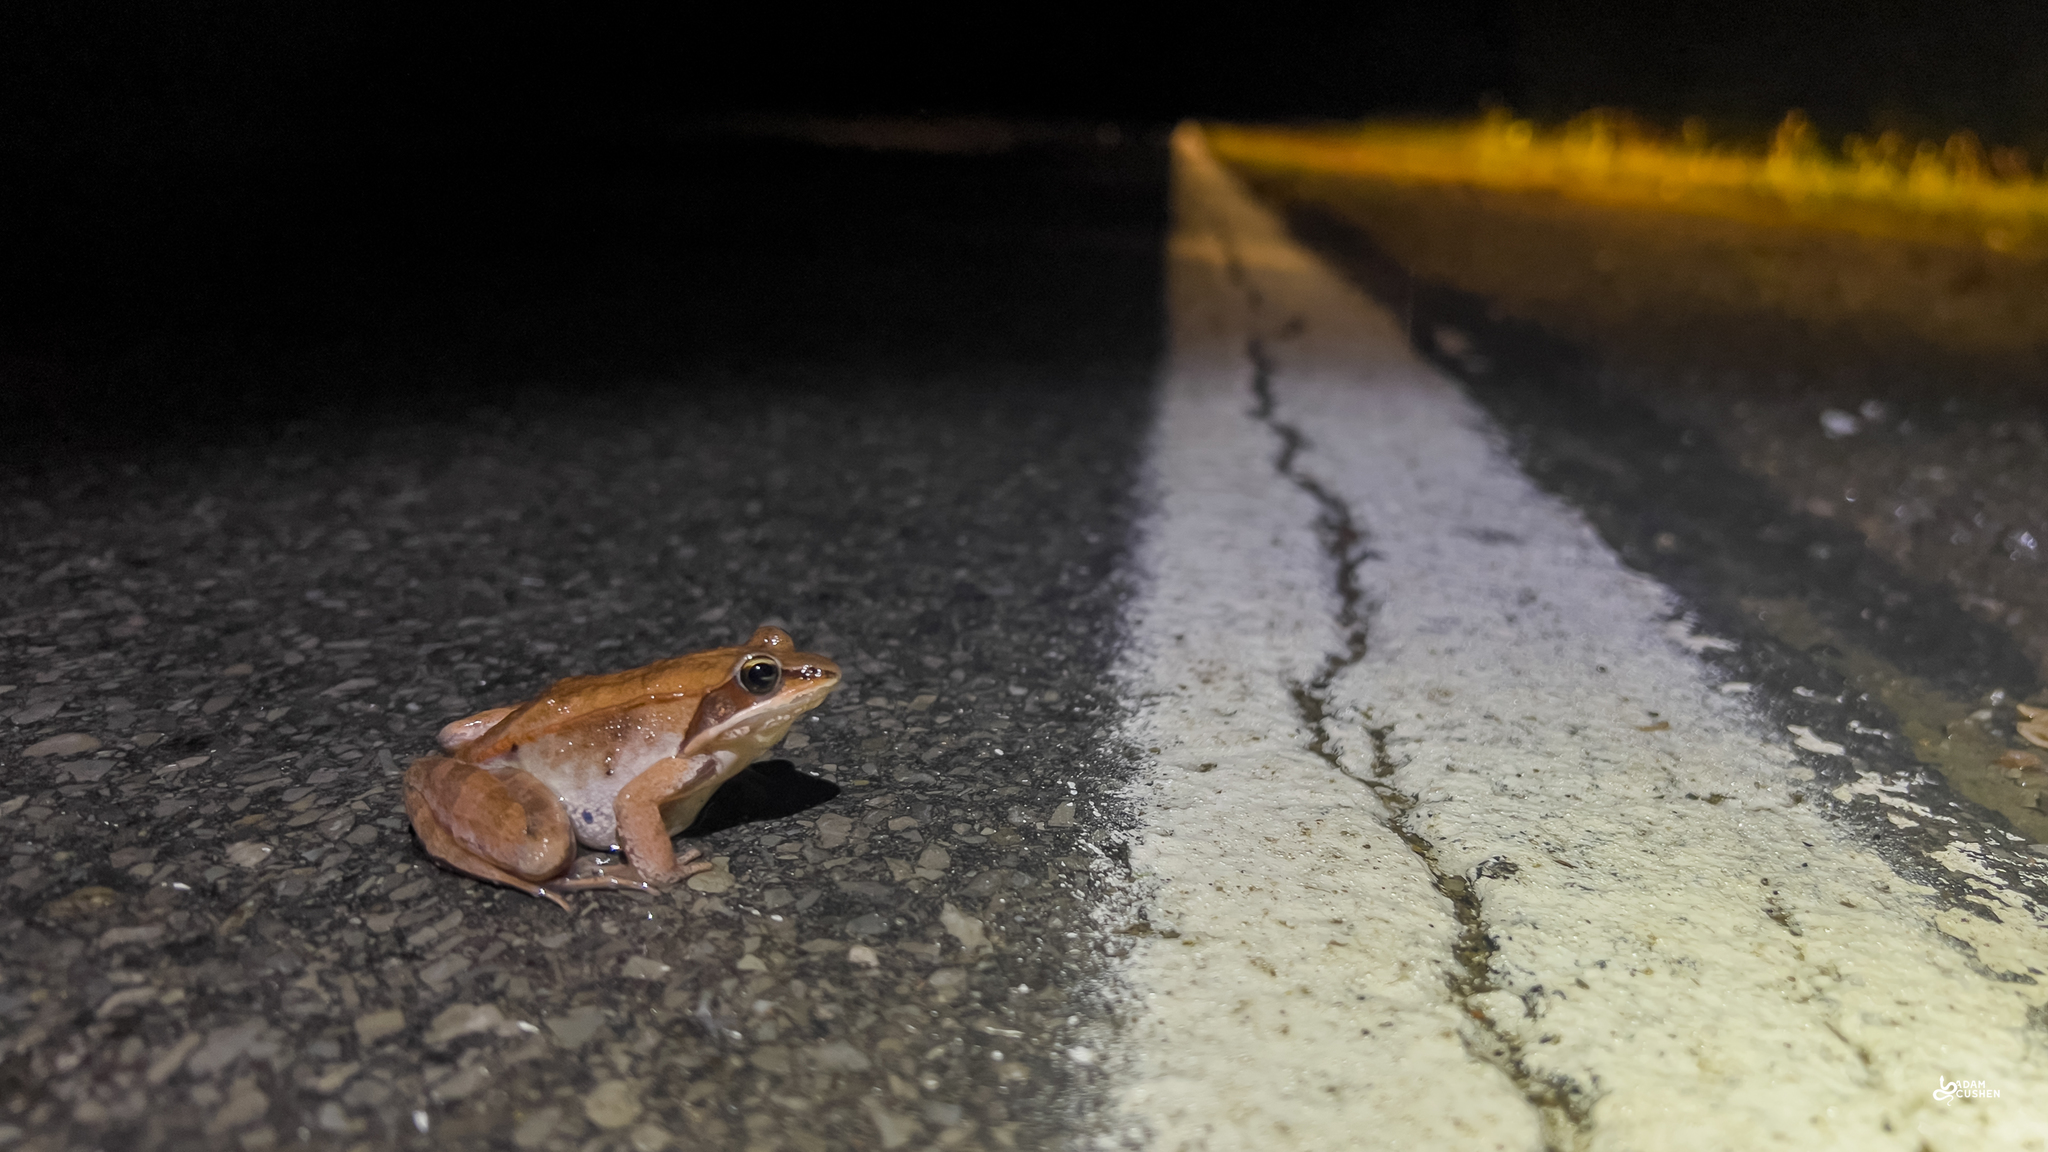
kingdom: Animalia
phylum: Chordata
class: Amphibia
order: Anura
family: Ranidae
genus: Lithobates
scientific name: Lithobates sylvaticus
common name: Wood frog
